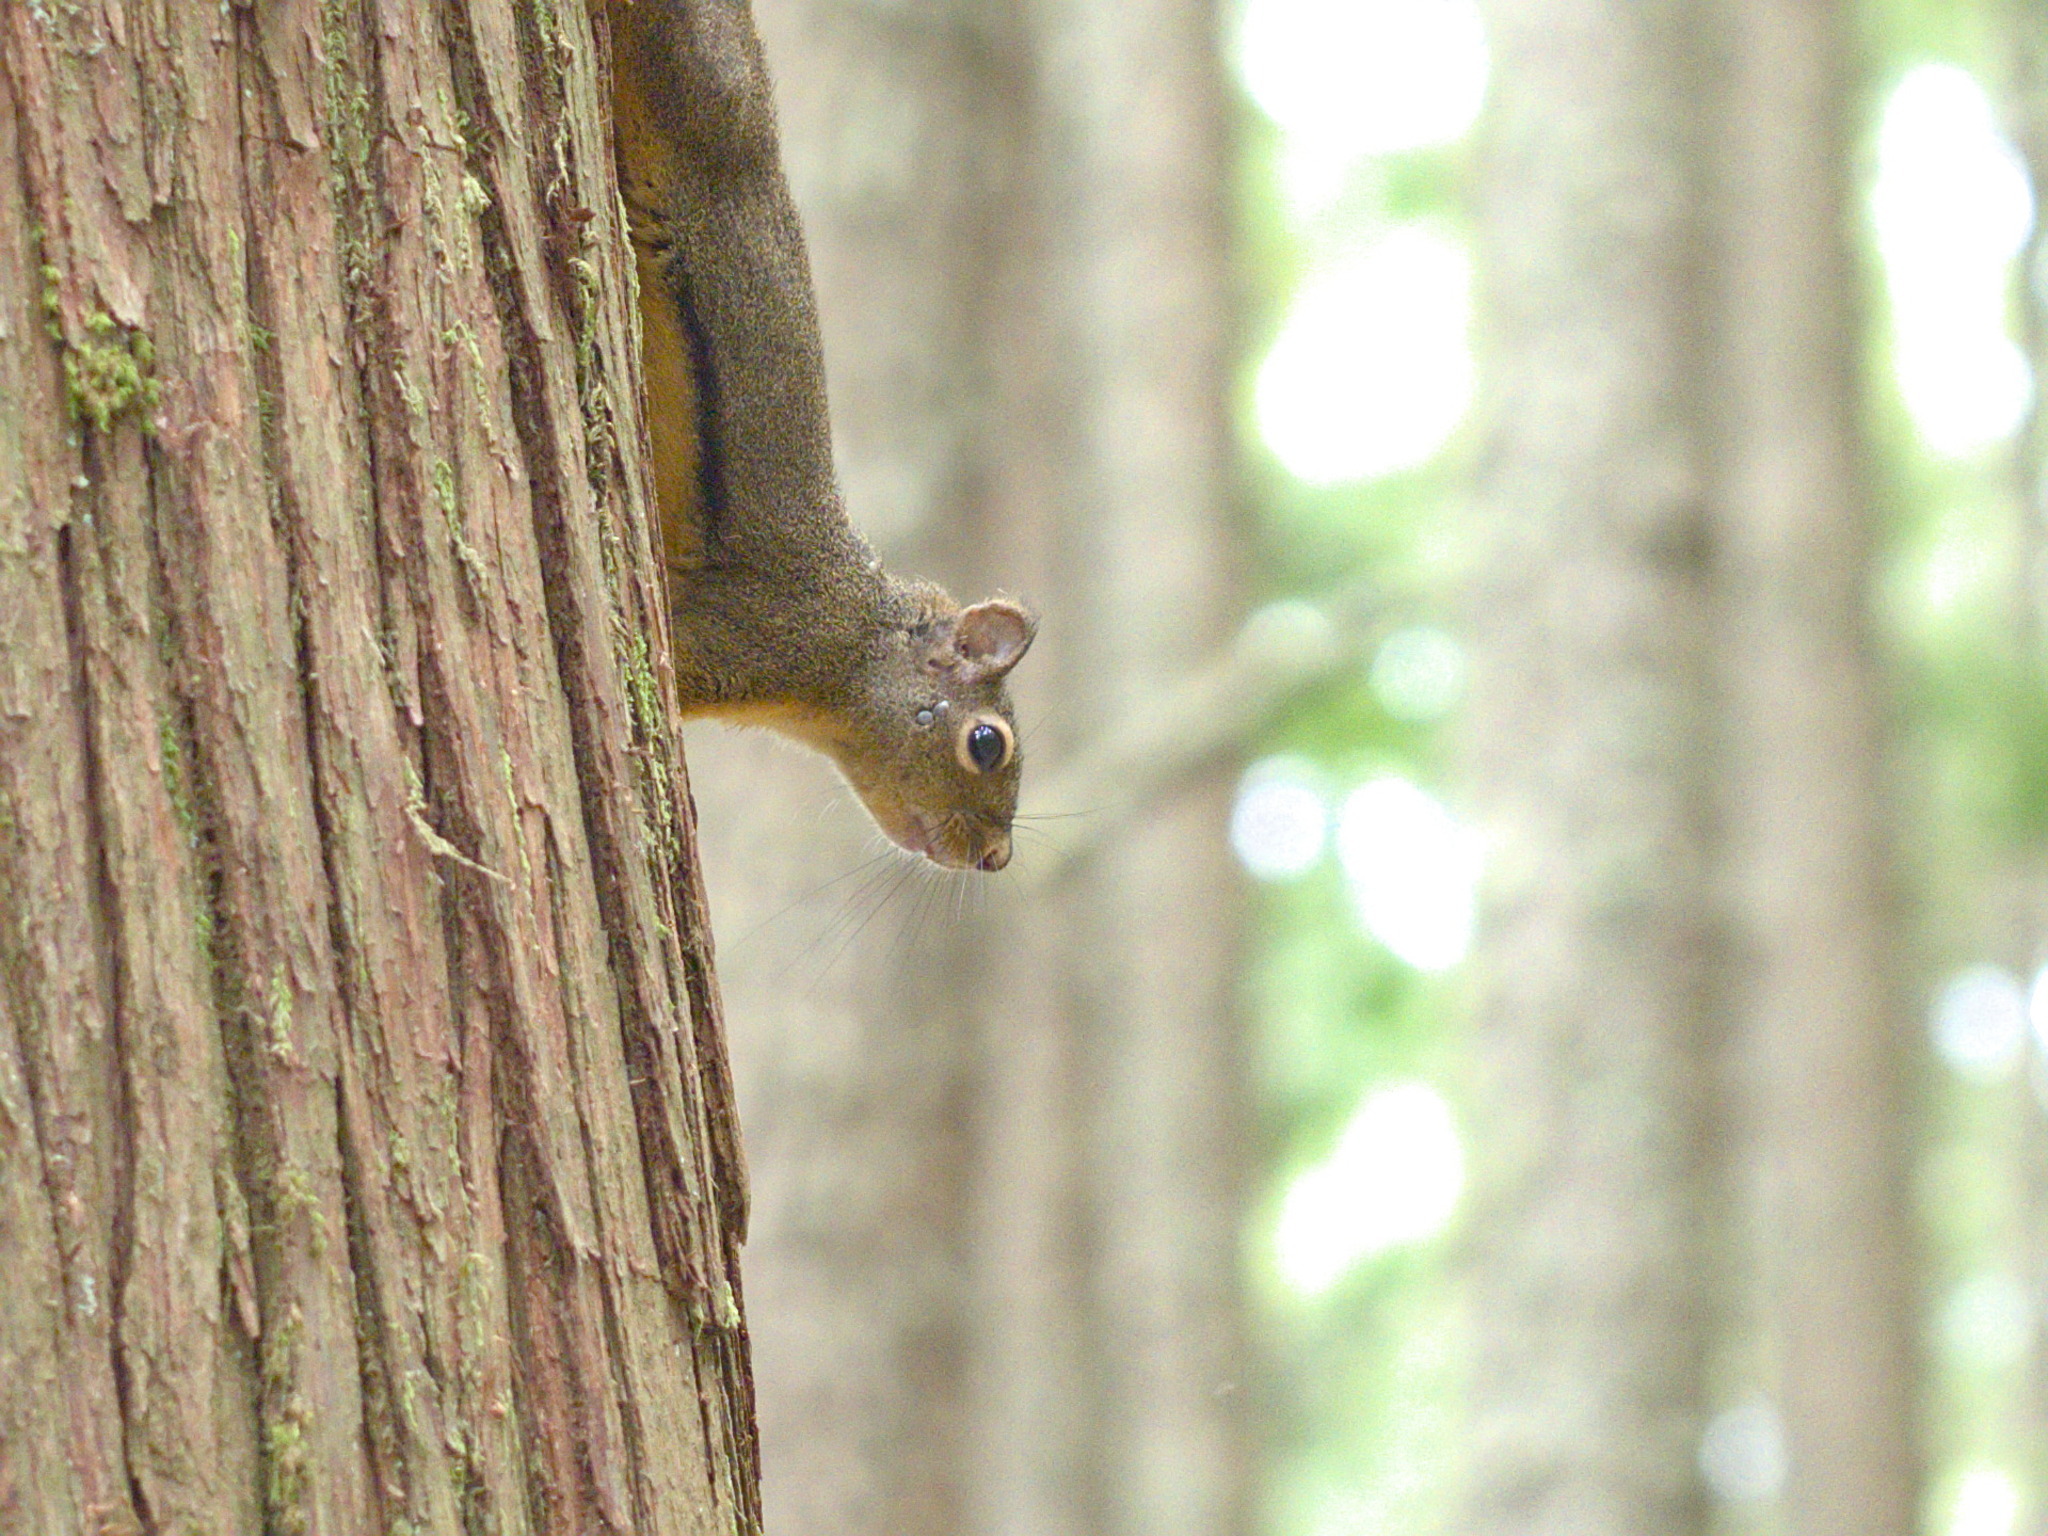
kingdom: Animalia
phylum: Chordata
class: Mammalia
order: Rodentia
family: Sciuridae
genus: Tamiasciurus
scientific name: Tamiasciurus douglasii
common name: Douglas's squirrel
